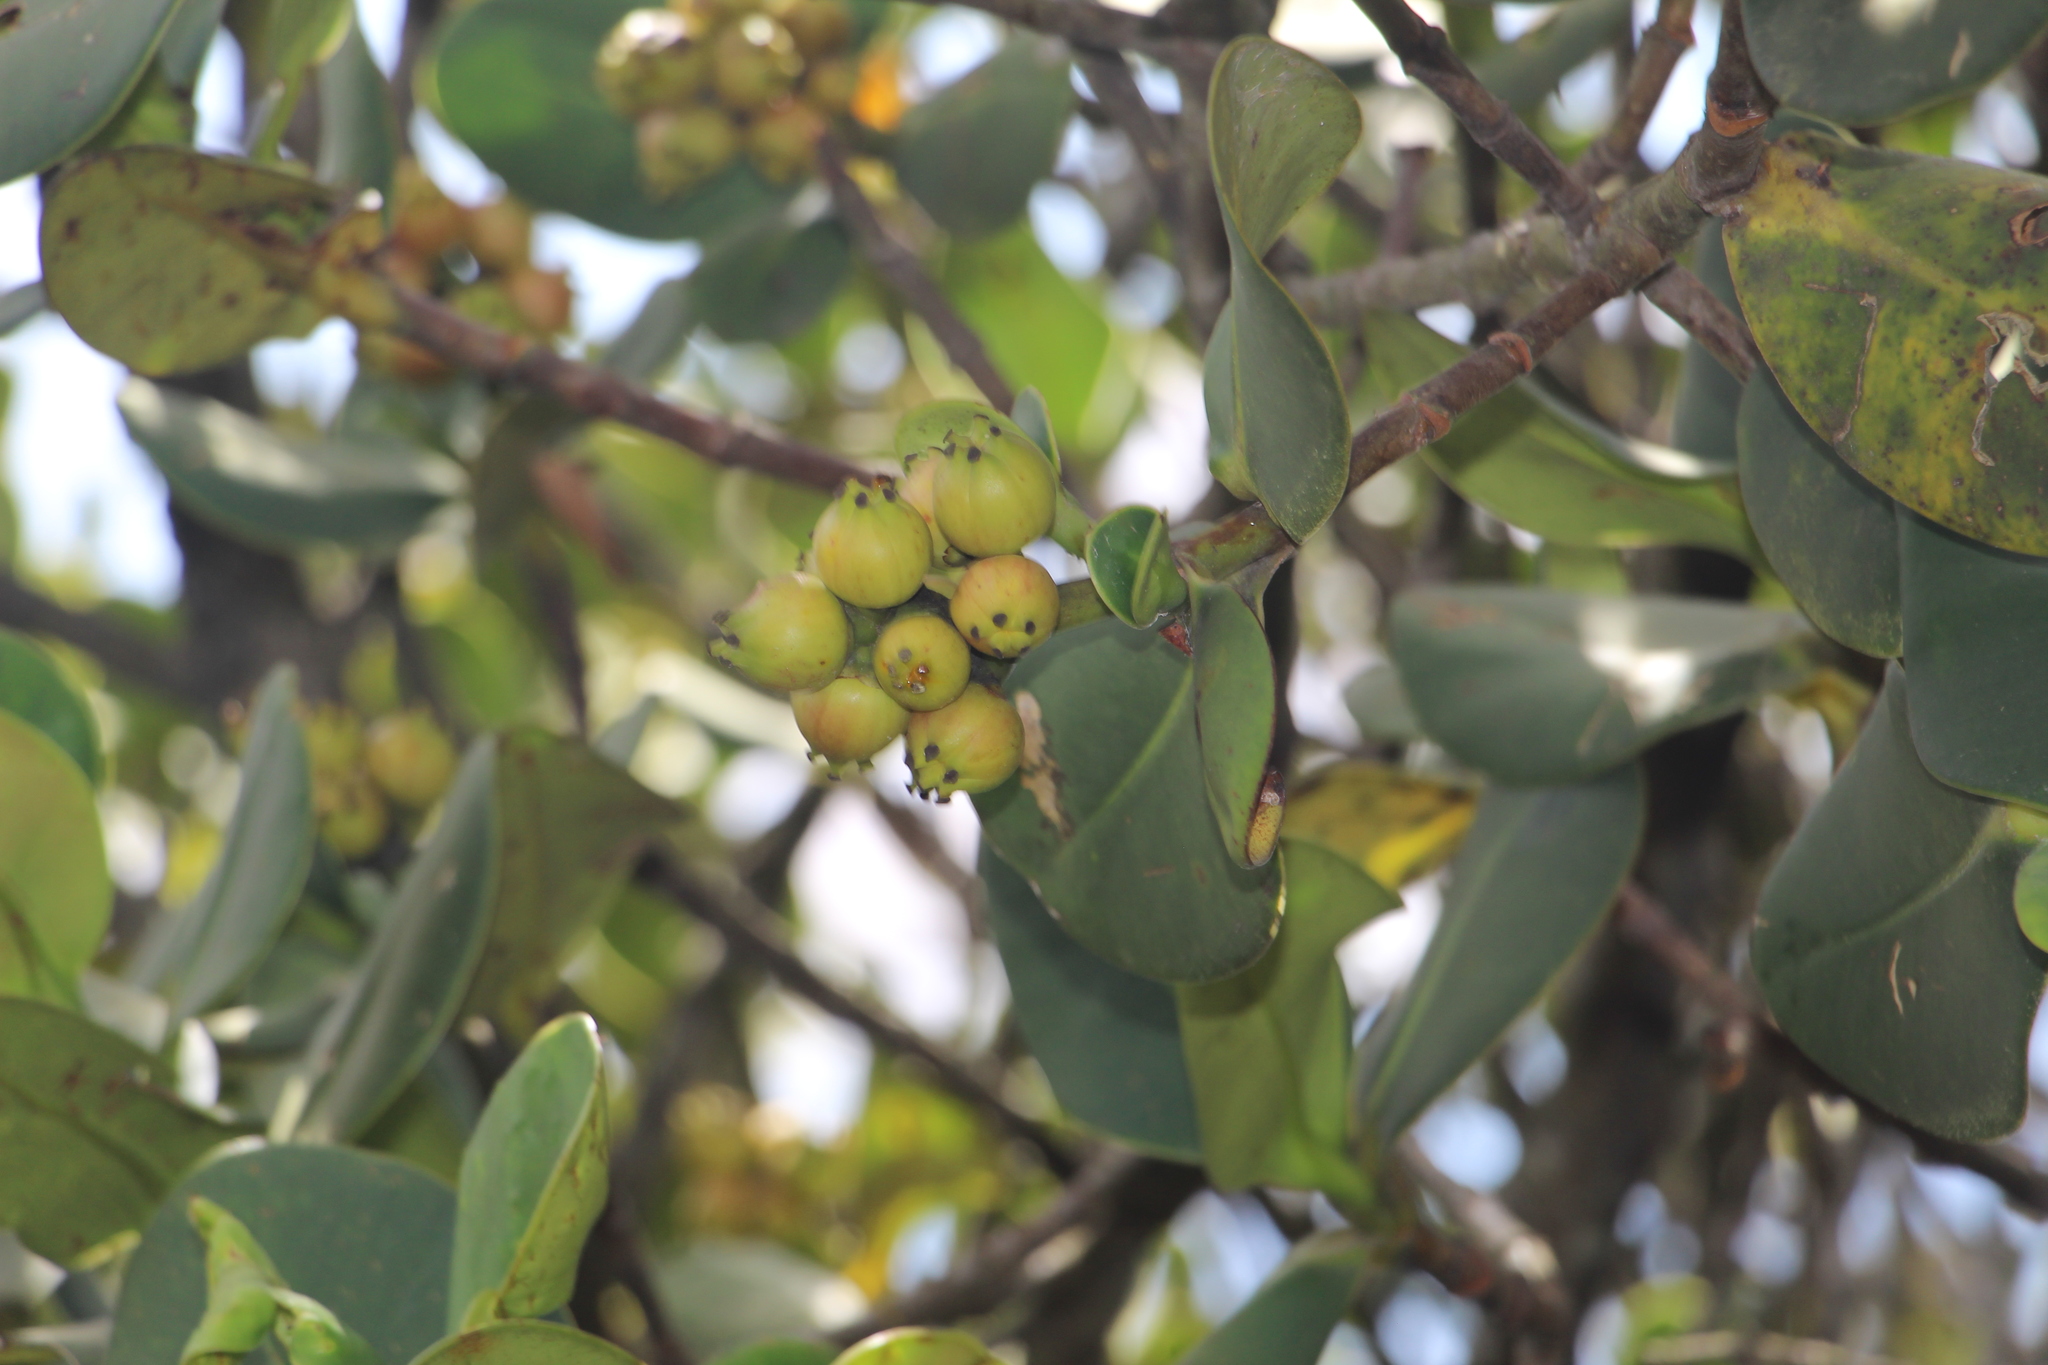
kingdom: Plantae
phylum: Tracheophyta
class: Magnoliopsida
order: Malpighiales
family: Clusiaceae
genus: Clusia
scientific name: Clusia multiflora
